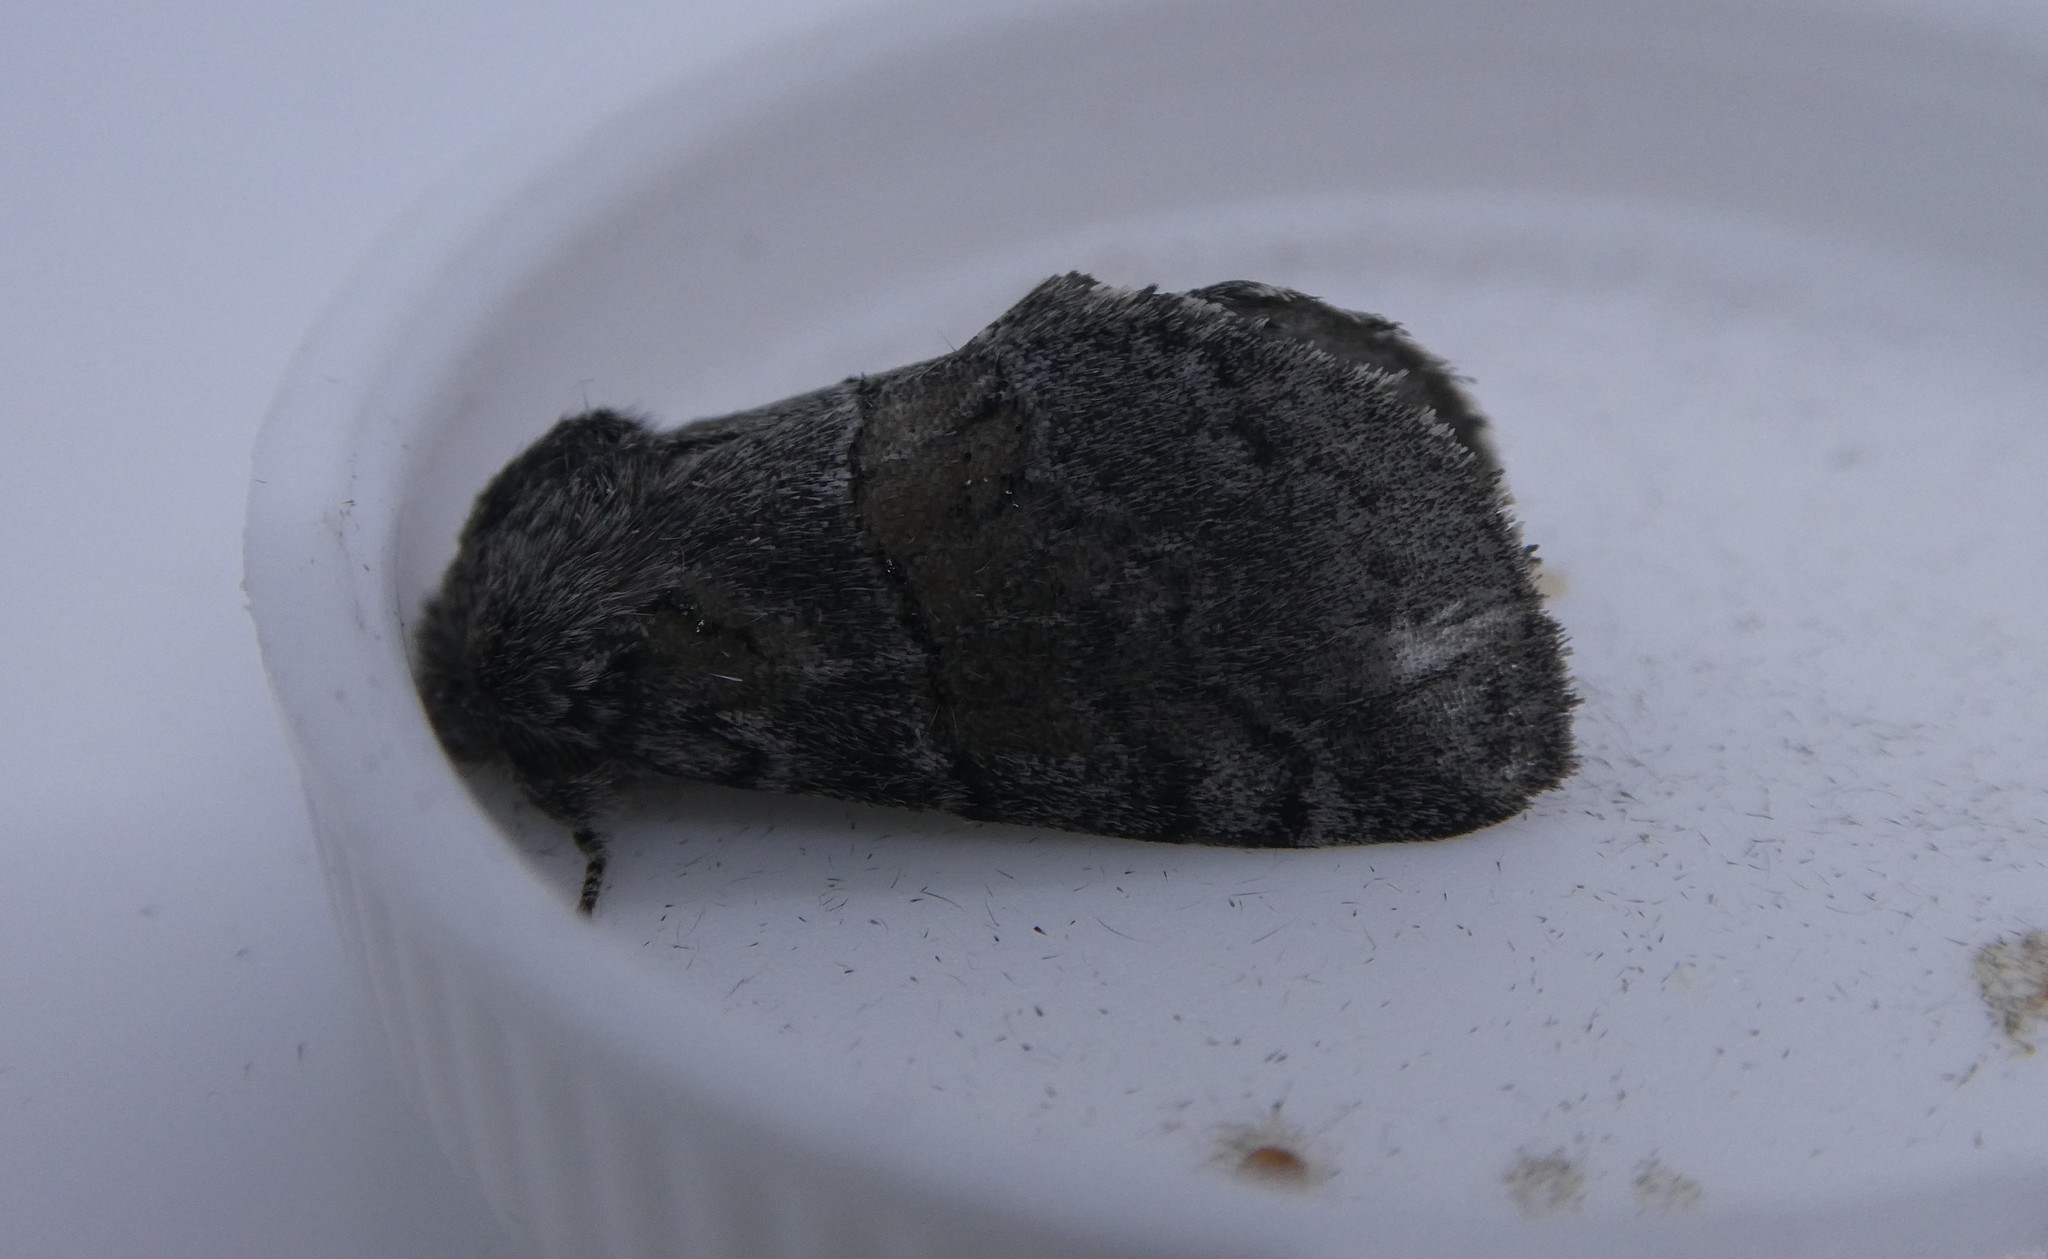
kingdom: Animalia
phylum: Arthropoda
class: Insecta
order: Lepidoptera
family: Notodontidae
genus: Gluphisia
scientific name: Gluphisia septentrionis
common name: Common gluphisia
